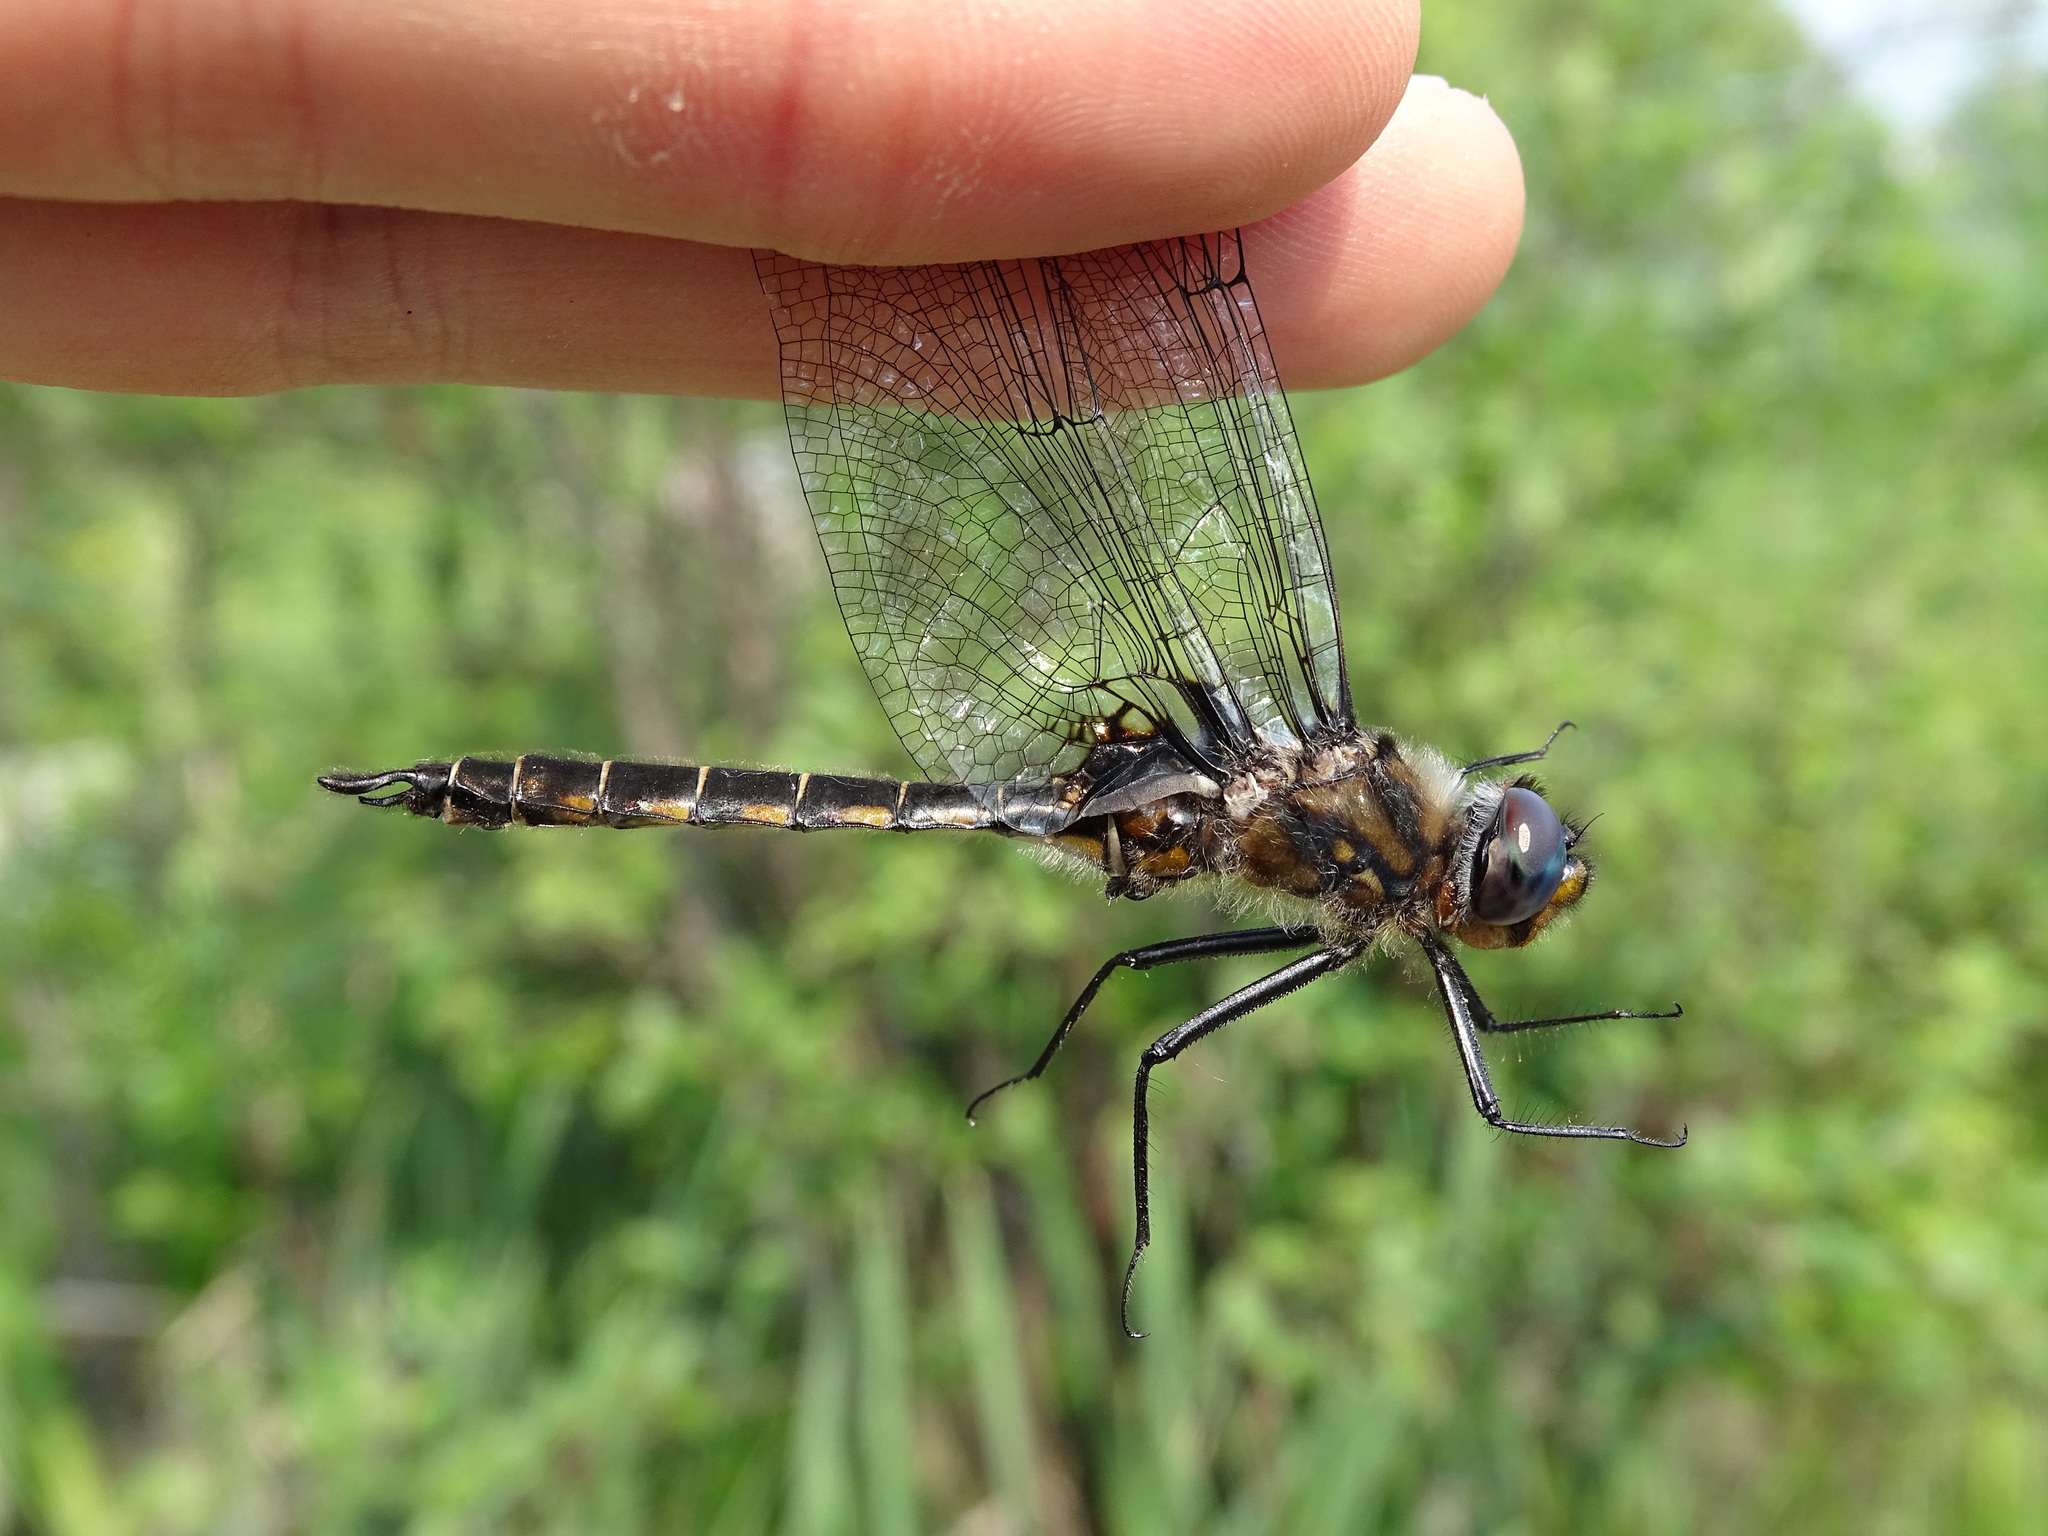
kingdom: Animalia
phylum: Arthropoda
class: Insecta
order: Odonata
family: Corduliidae
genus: Epitheca
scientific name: Epitheca spinigera
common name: Spiny baskettail
